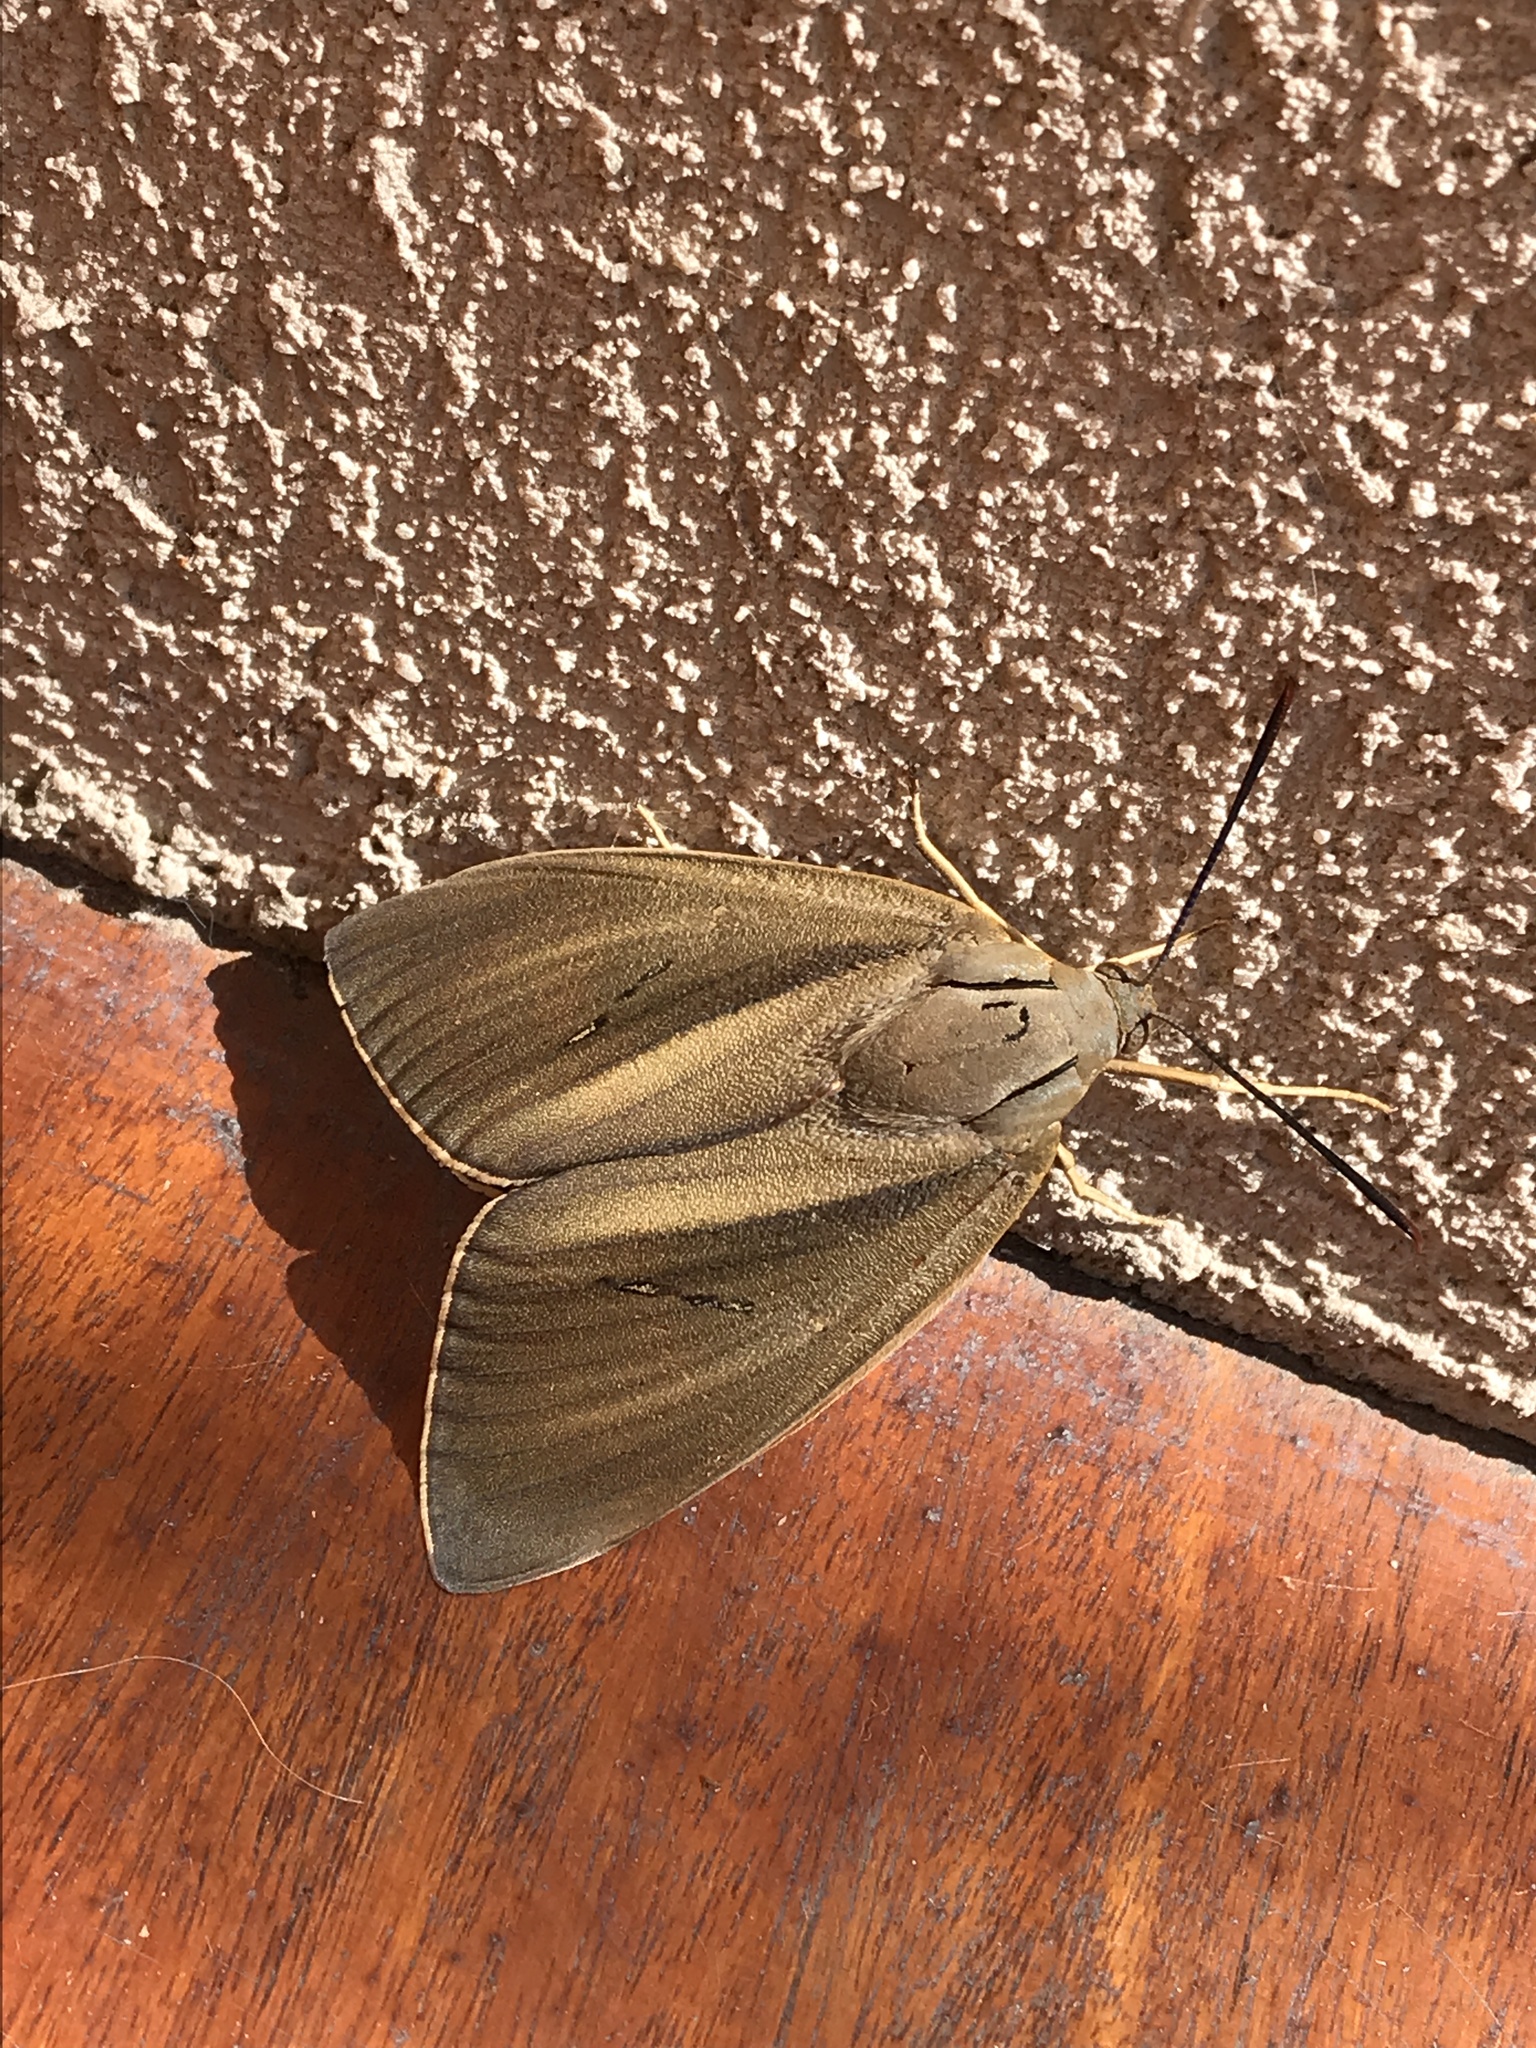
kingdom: Animalia
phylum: Arthropoda
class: Insecta
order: Lepidoptera
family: Castniidae
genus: Paysandisia
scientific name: Paysandisia archon
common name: Palm moth
